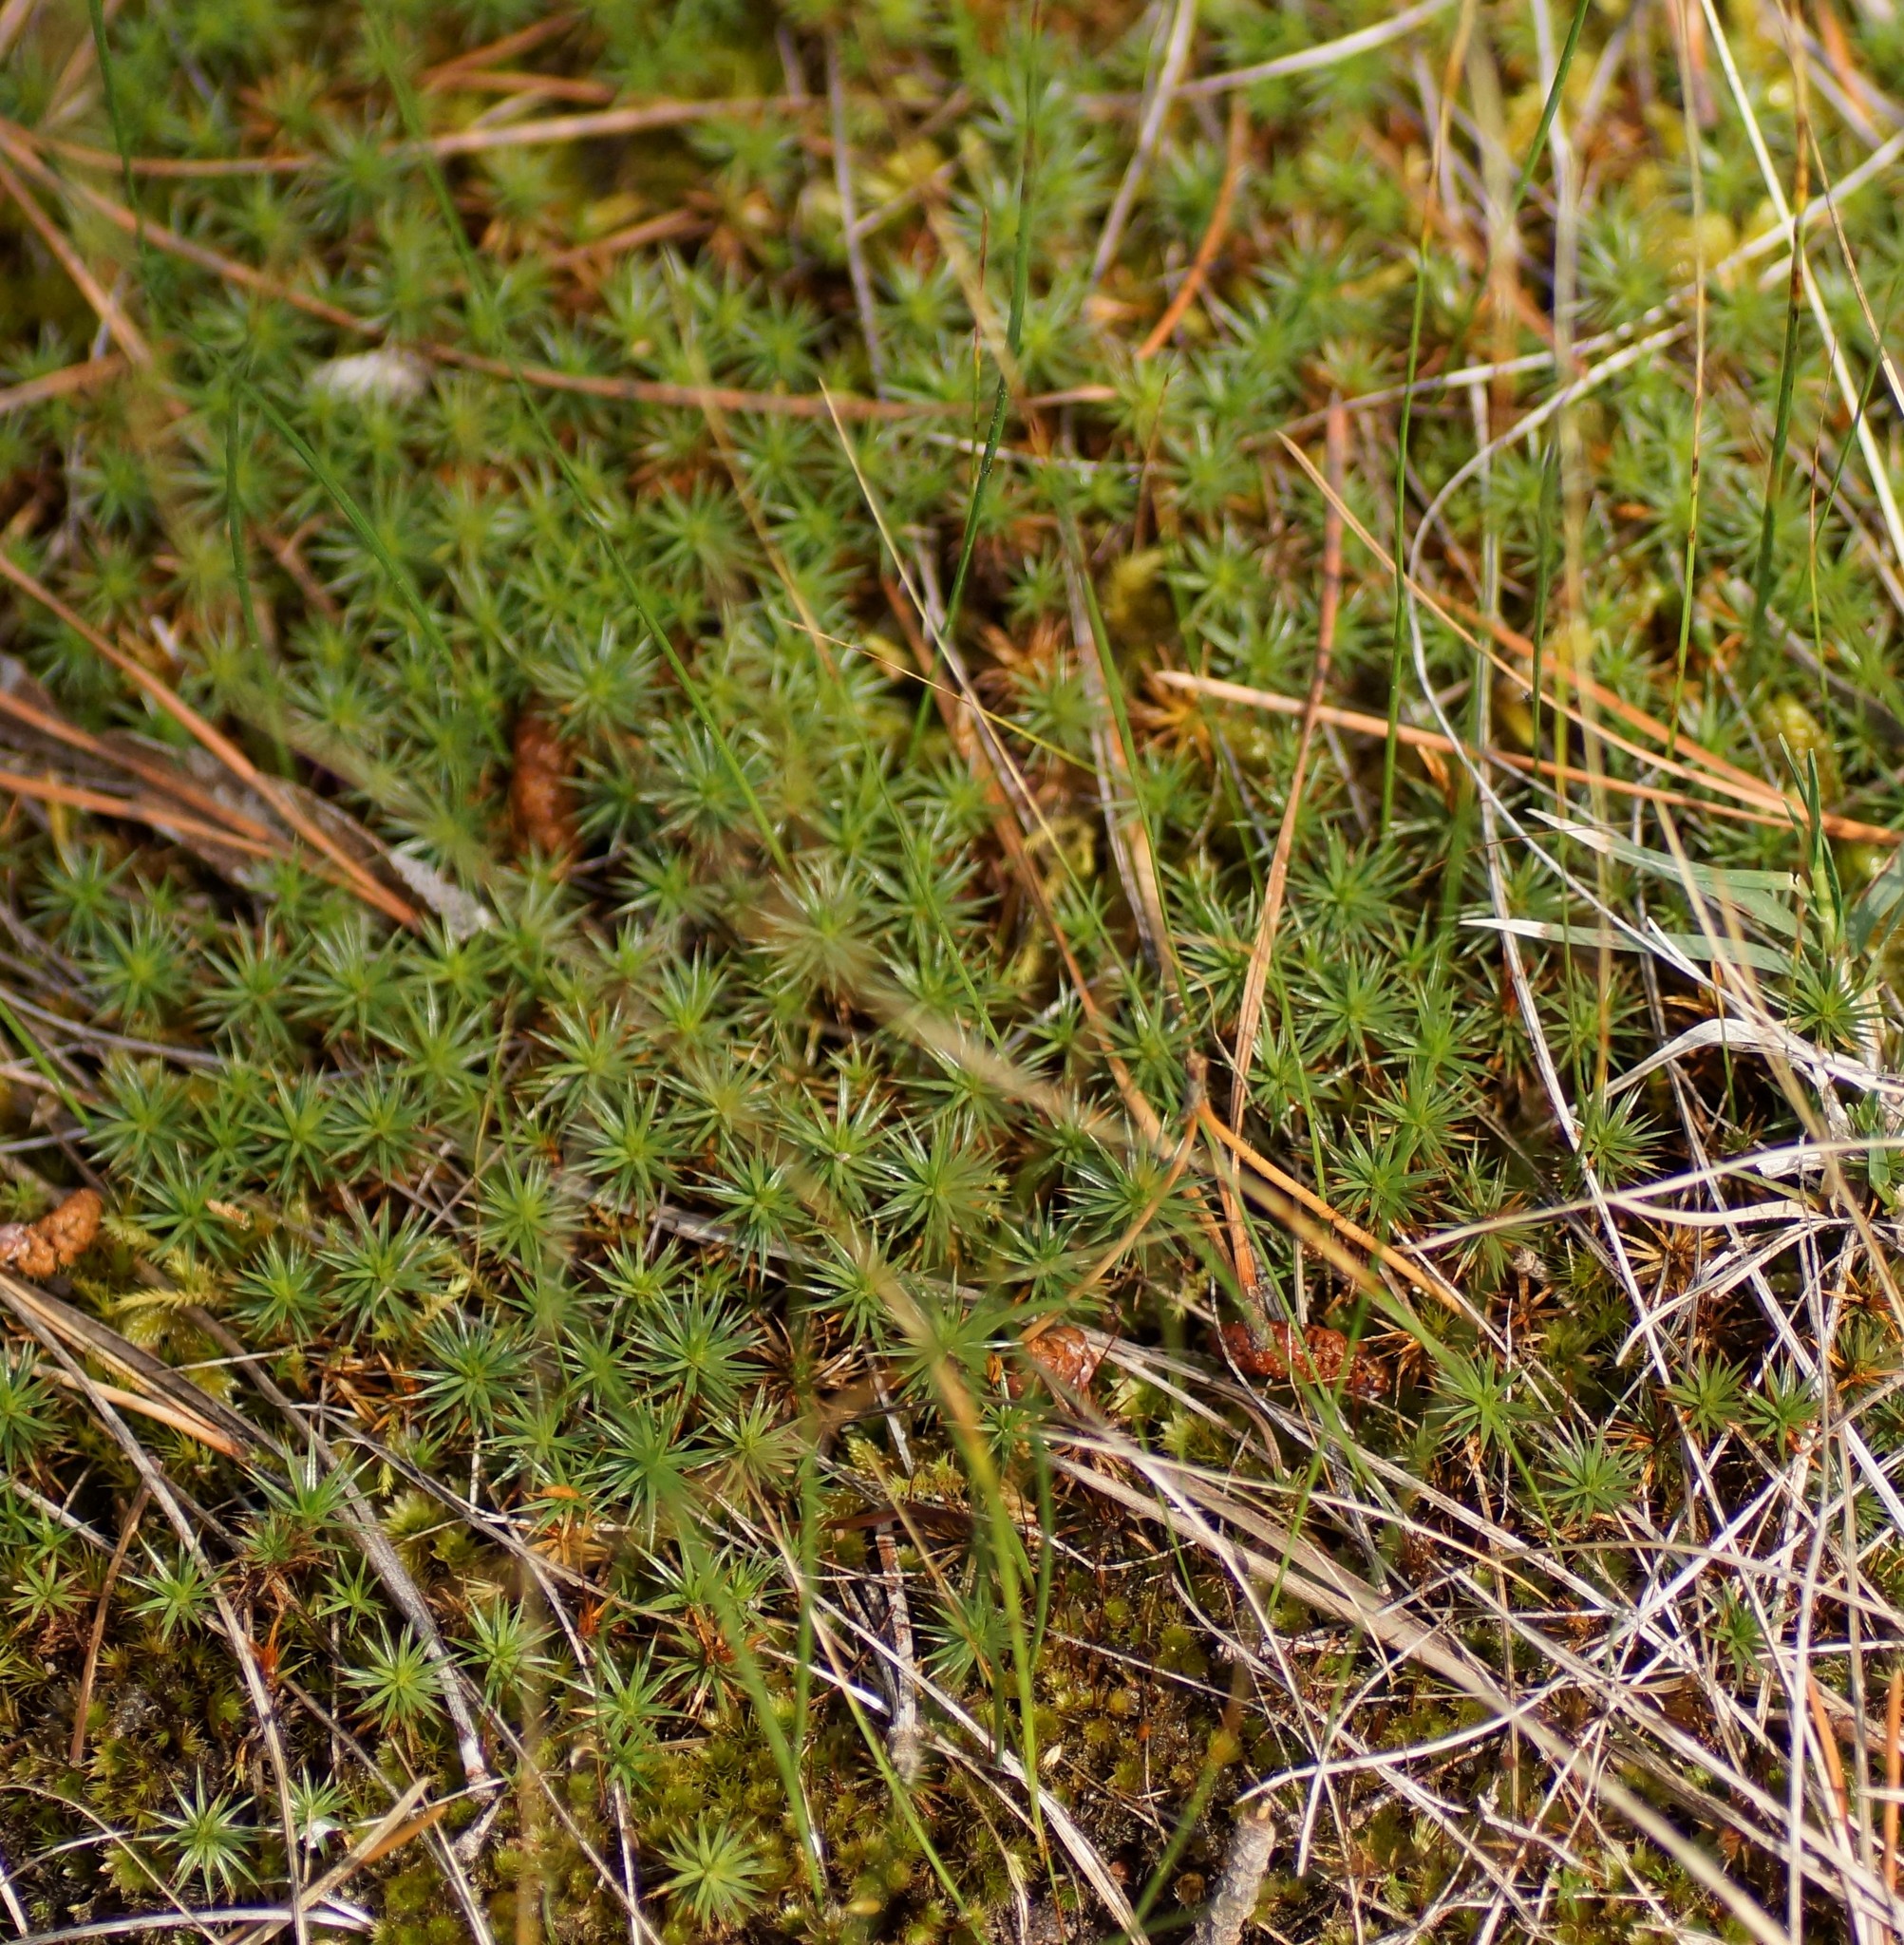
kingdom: Plantae
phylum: Bryophyta
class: Polytrichopsida
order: Polytrichales
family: Polytrichaceae
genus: Polytrichum
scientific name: Polytrichum juniperinum
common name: Juniper haircap moss
